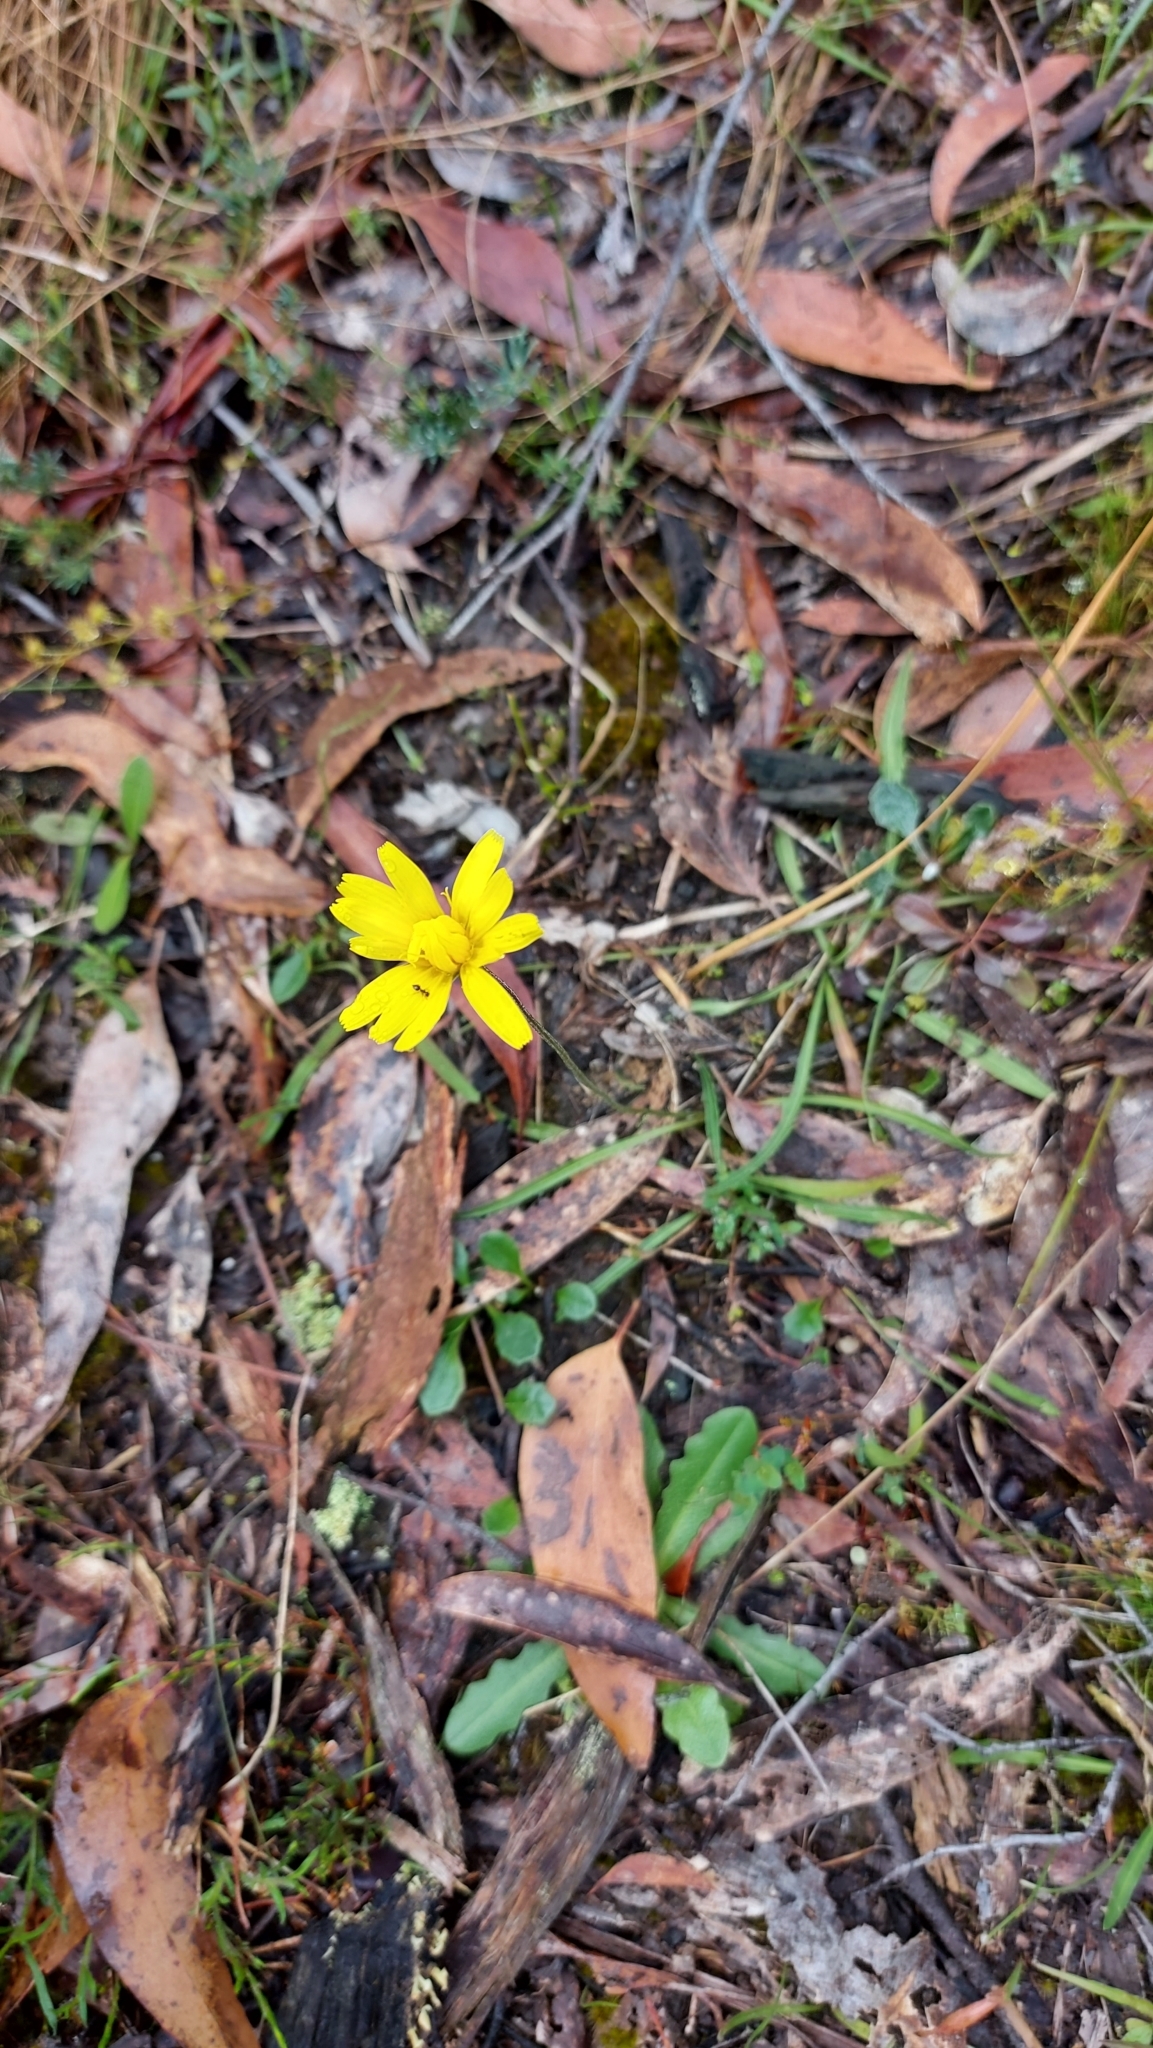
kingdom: Plantae
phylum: Tracheophyta
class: Magnoliopsida
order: Asterales
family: Asteraceae
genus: Microseris
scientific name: Microseris lanceolata
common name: Yam daisy
